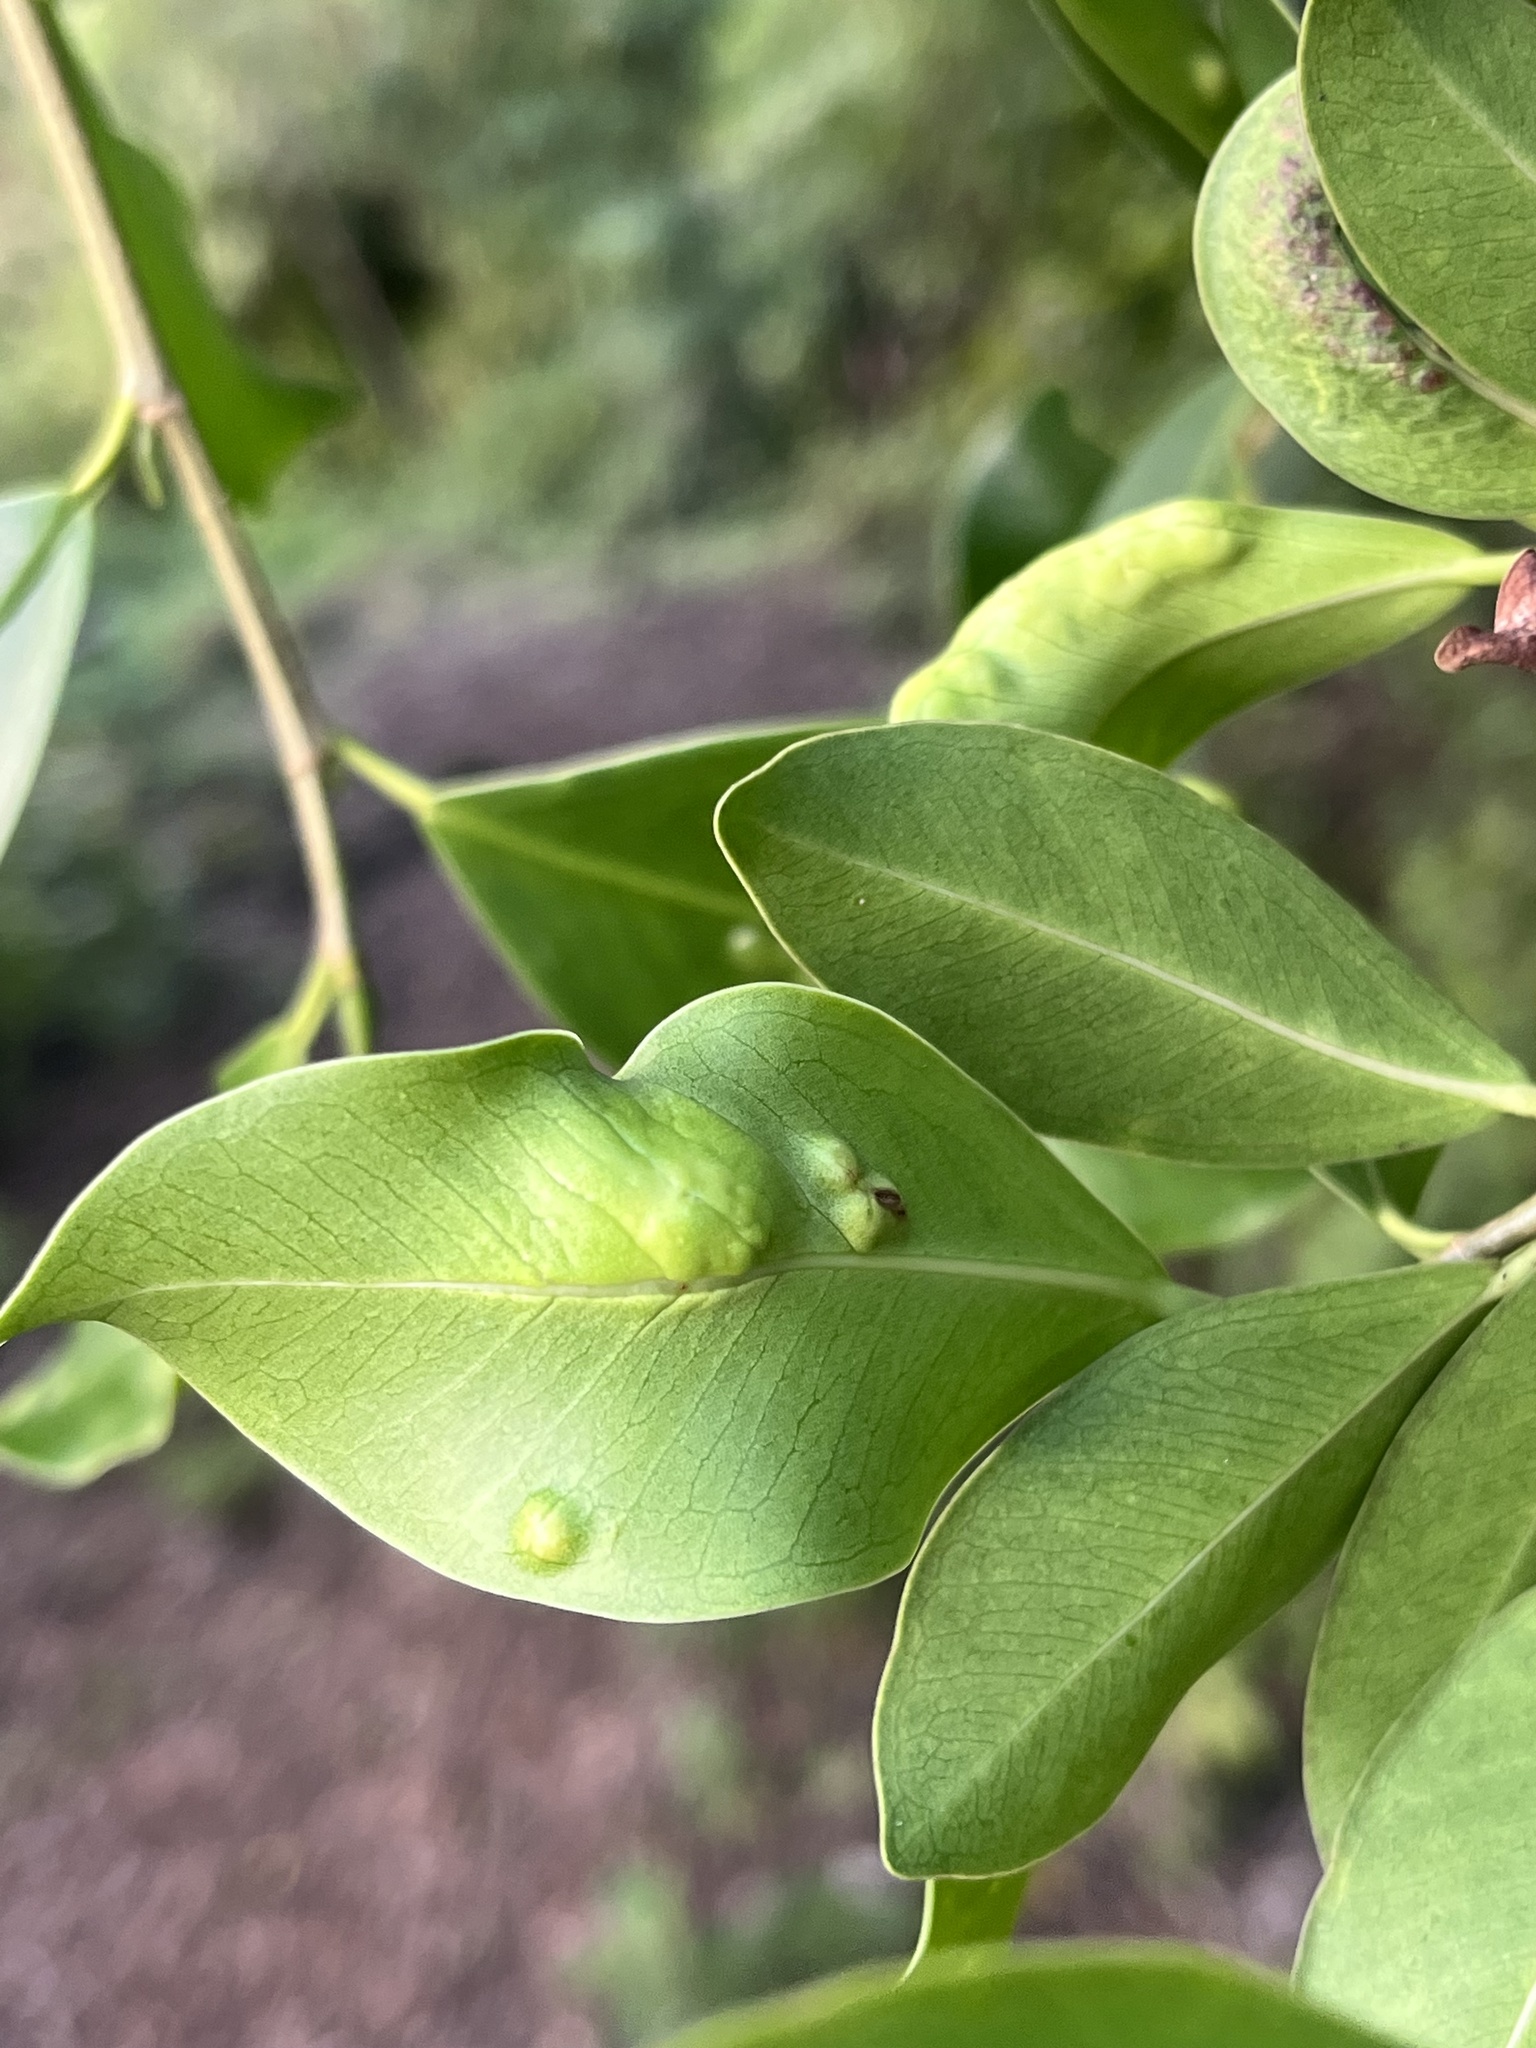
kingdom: Animalia
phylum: Arthropoda
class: Insecta
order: Hymenoptera
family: Agaonidae
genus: Josephiella
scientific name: Josephiella microcarpae
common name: Wasp
